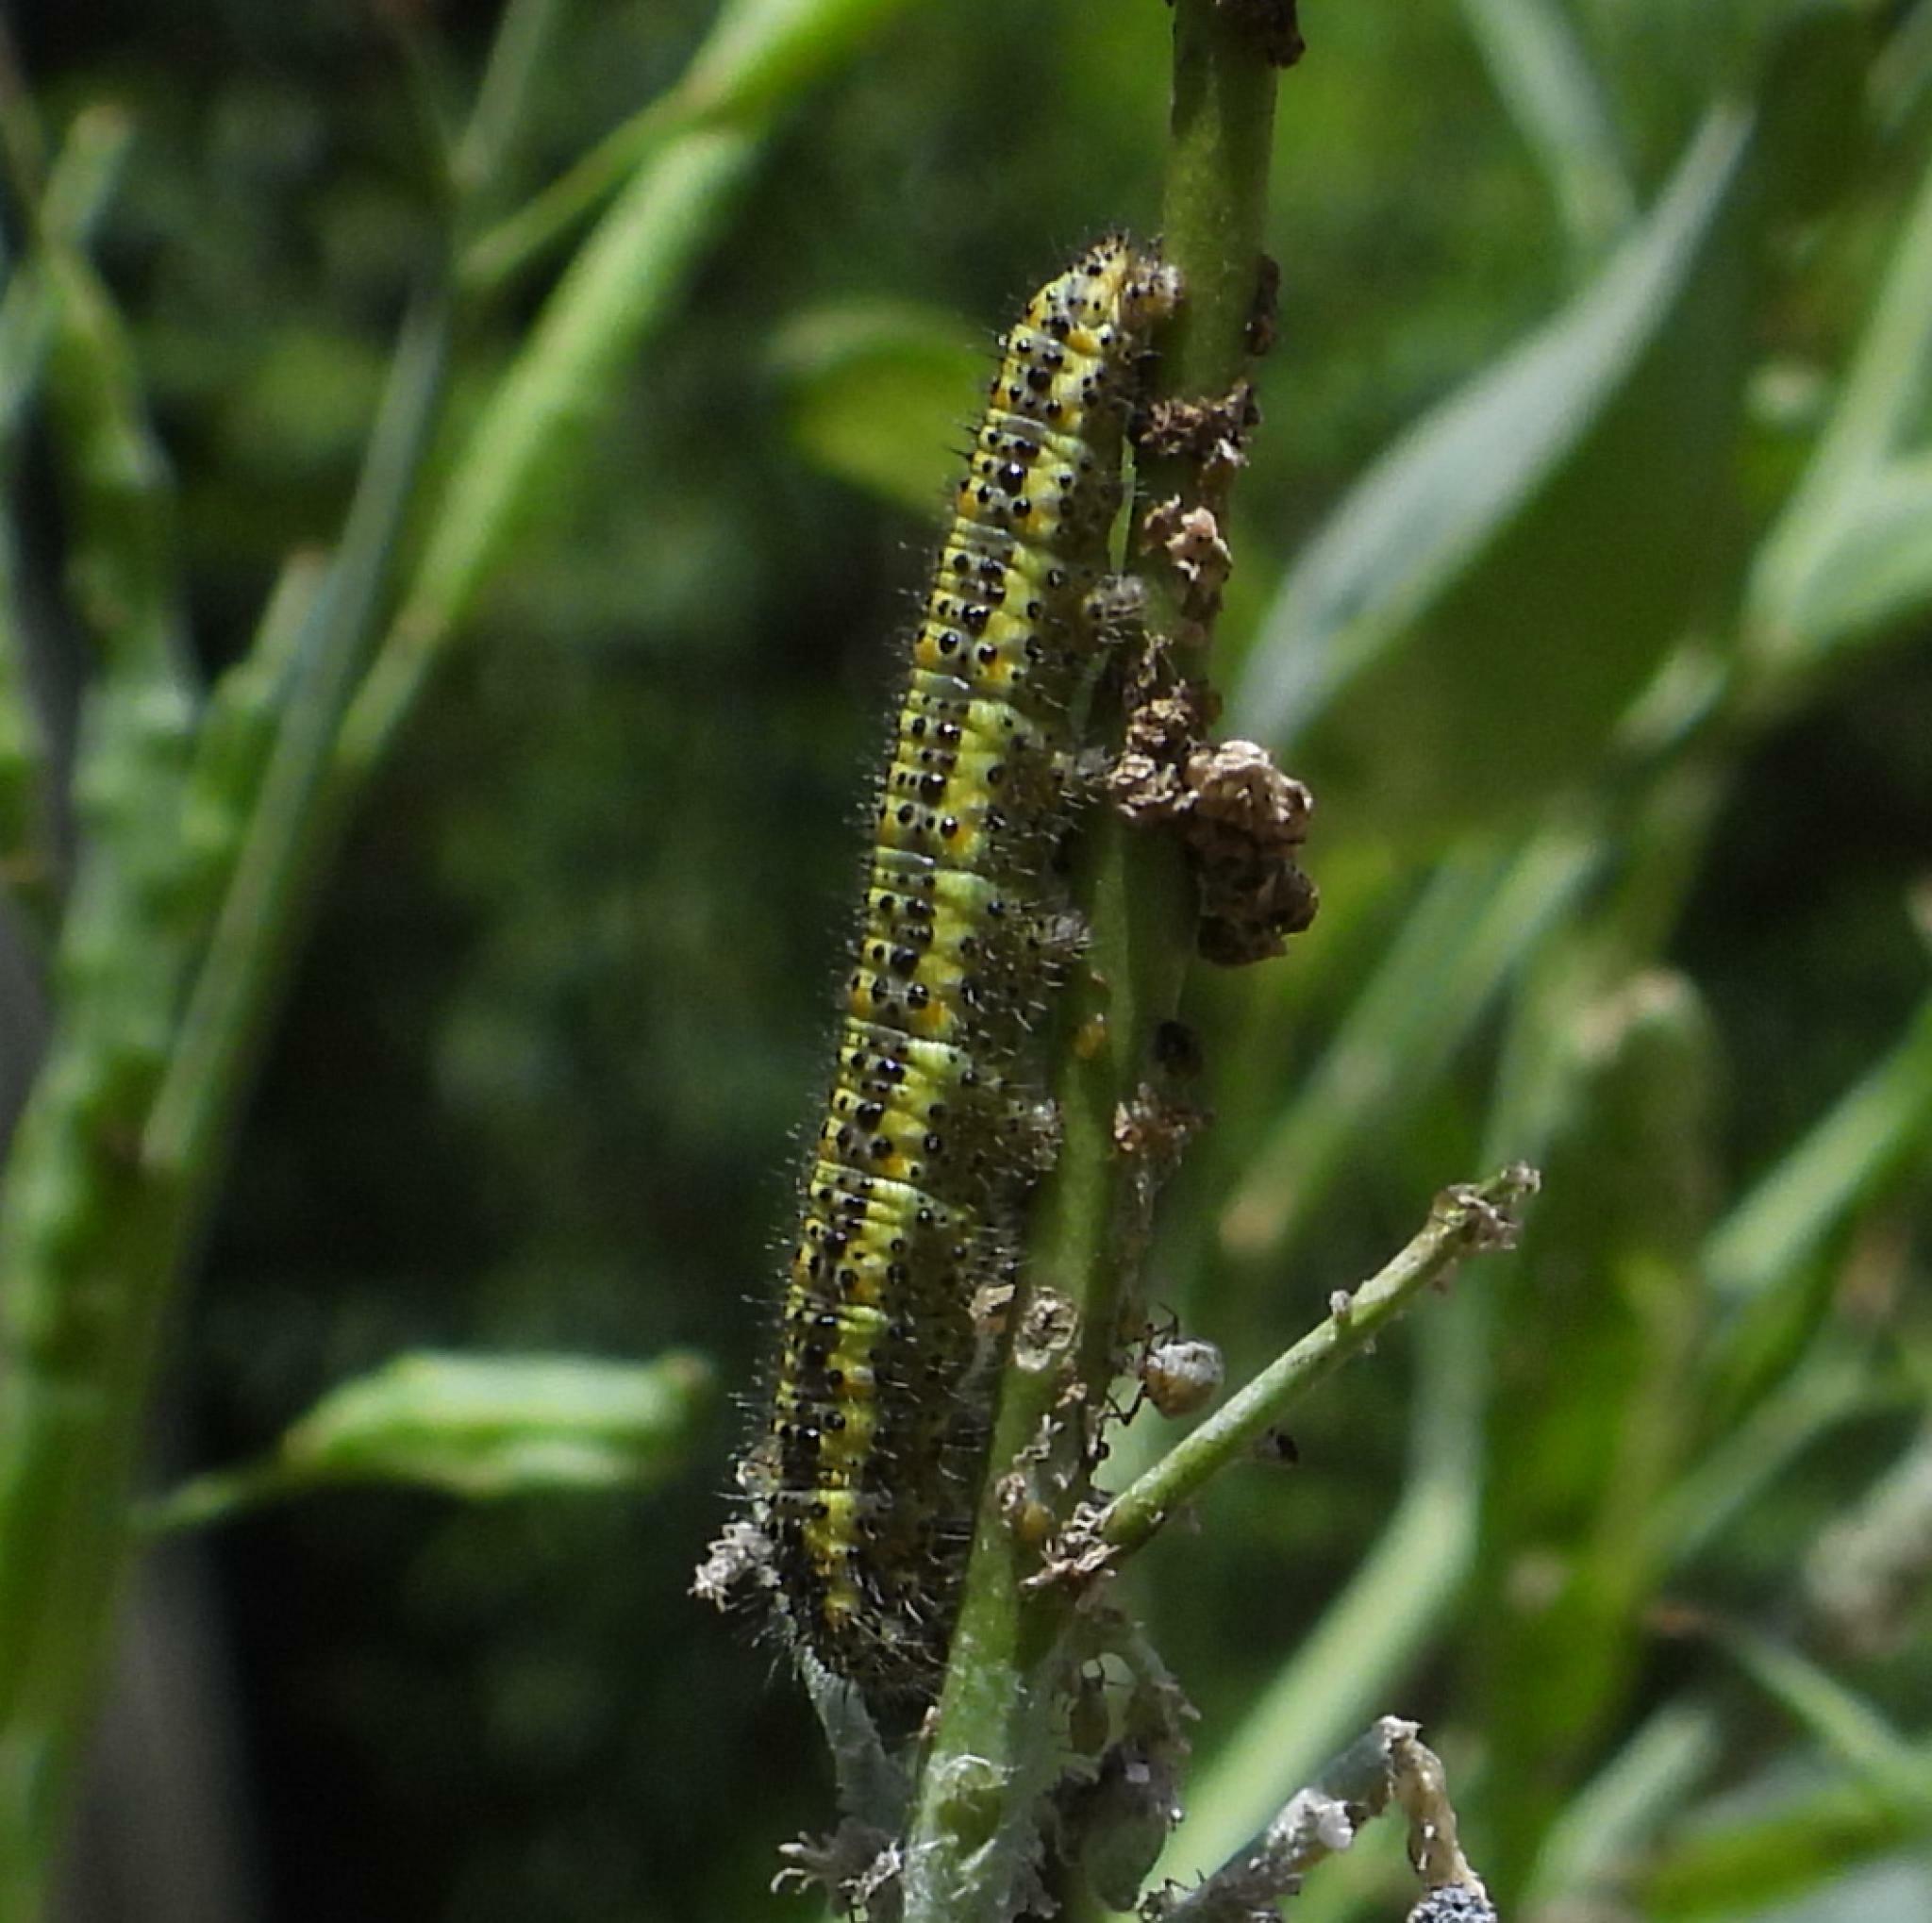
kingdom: Animalia
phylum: Arthropoda
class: Insecta
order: Lepidoptera
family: Pieridae
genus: Pontia
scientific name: Pontia helice
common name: Meadow white
